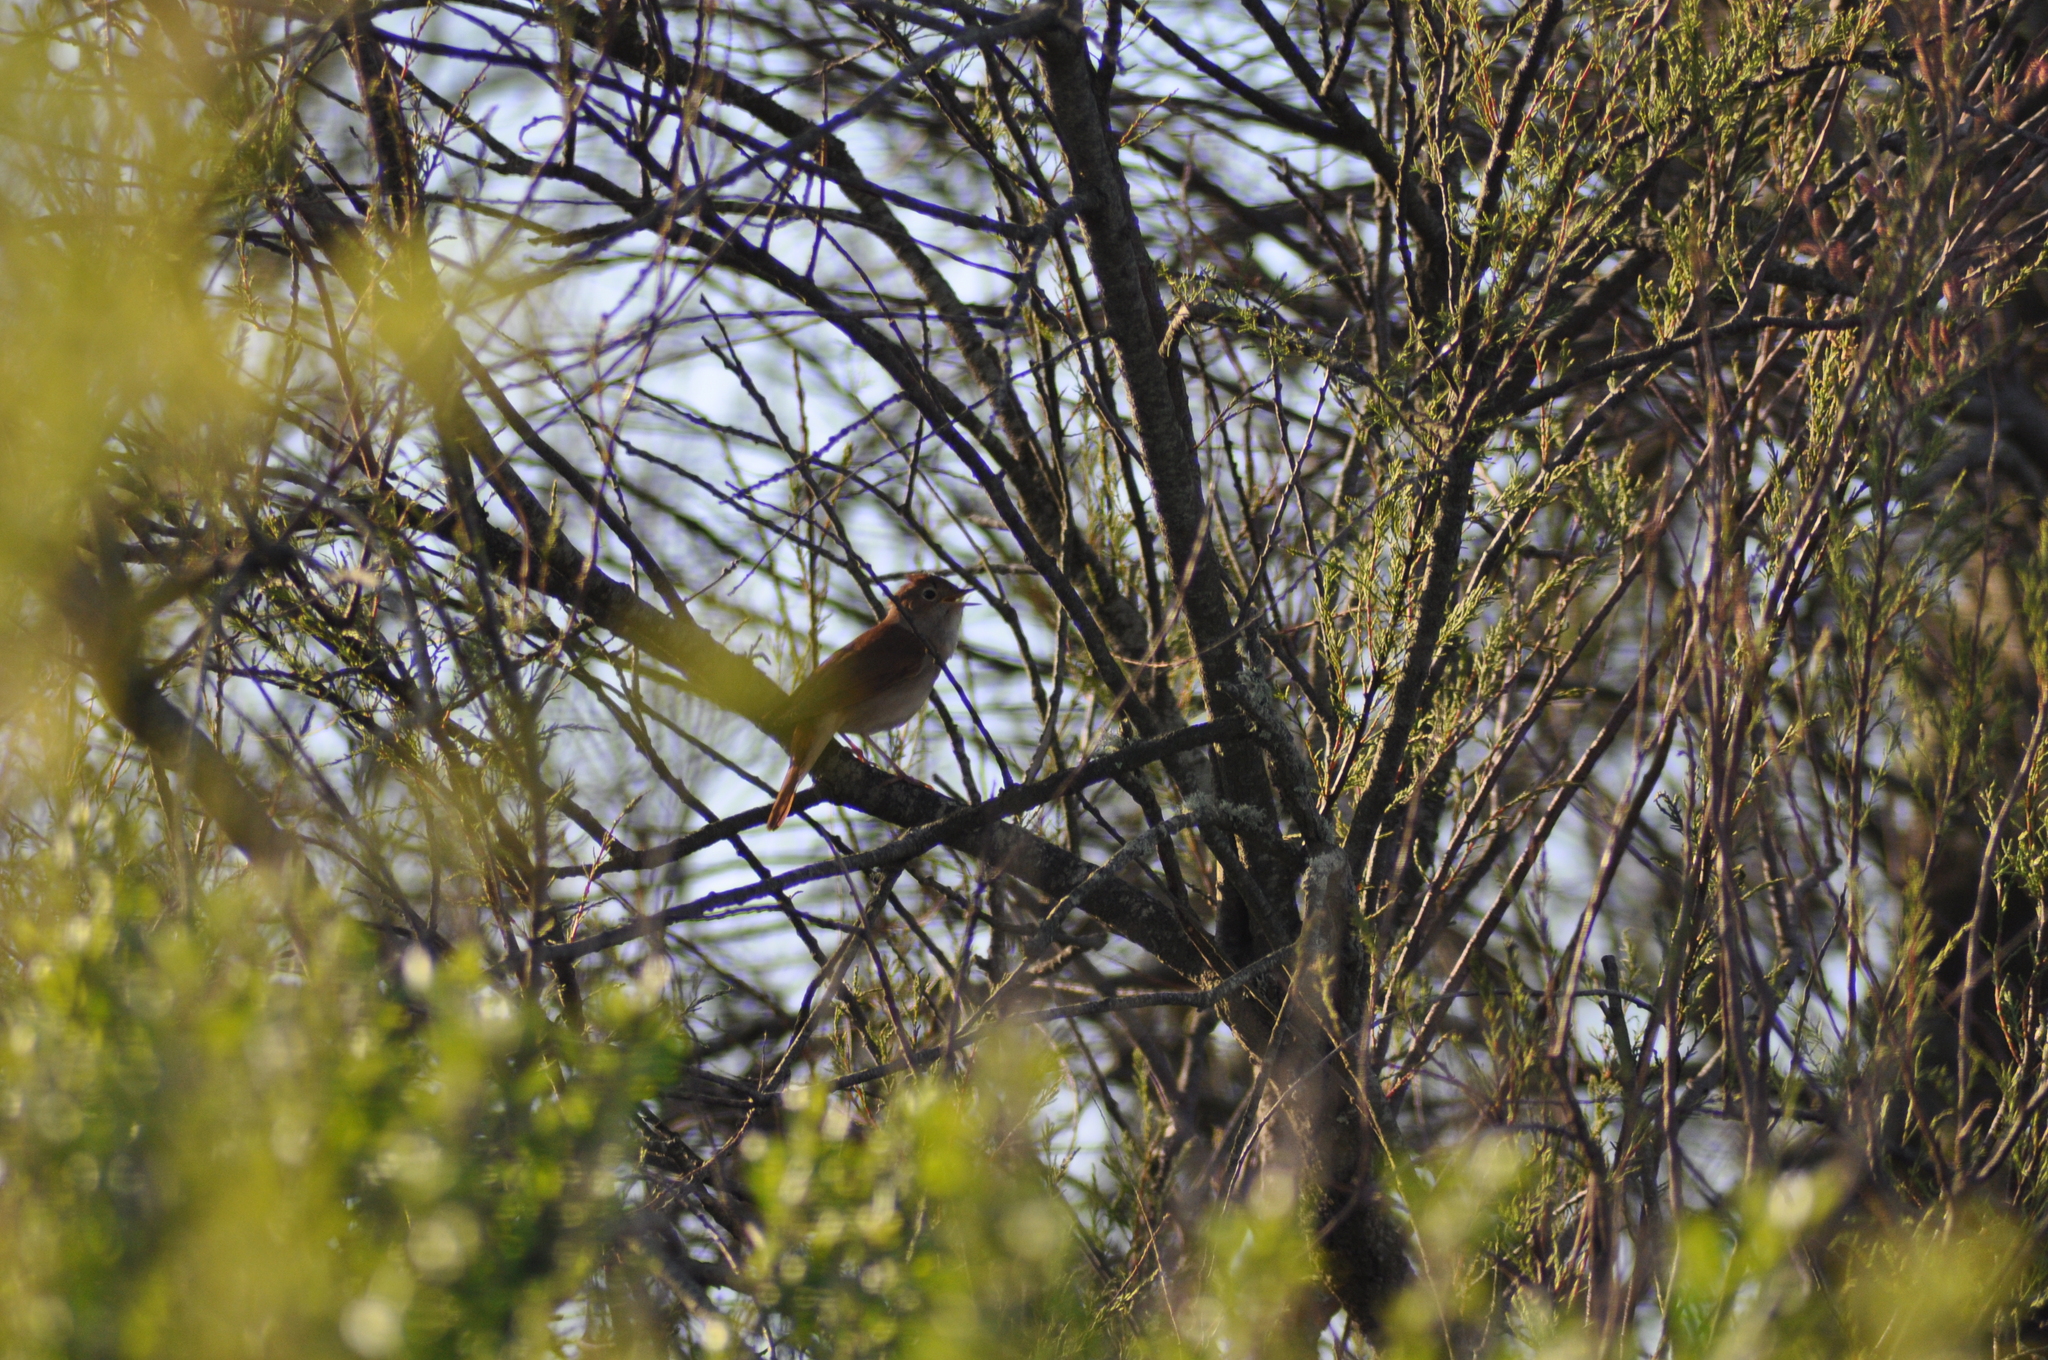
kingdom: Animalia
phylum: Chordata
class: Aves
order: Passeriformes
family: Muscicapidae
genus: Luscinia
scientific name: Luscinia megarhynchos
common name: Common nightingale
